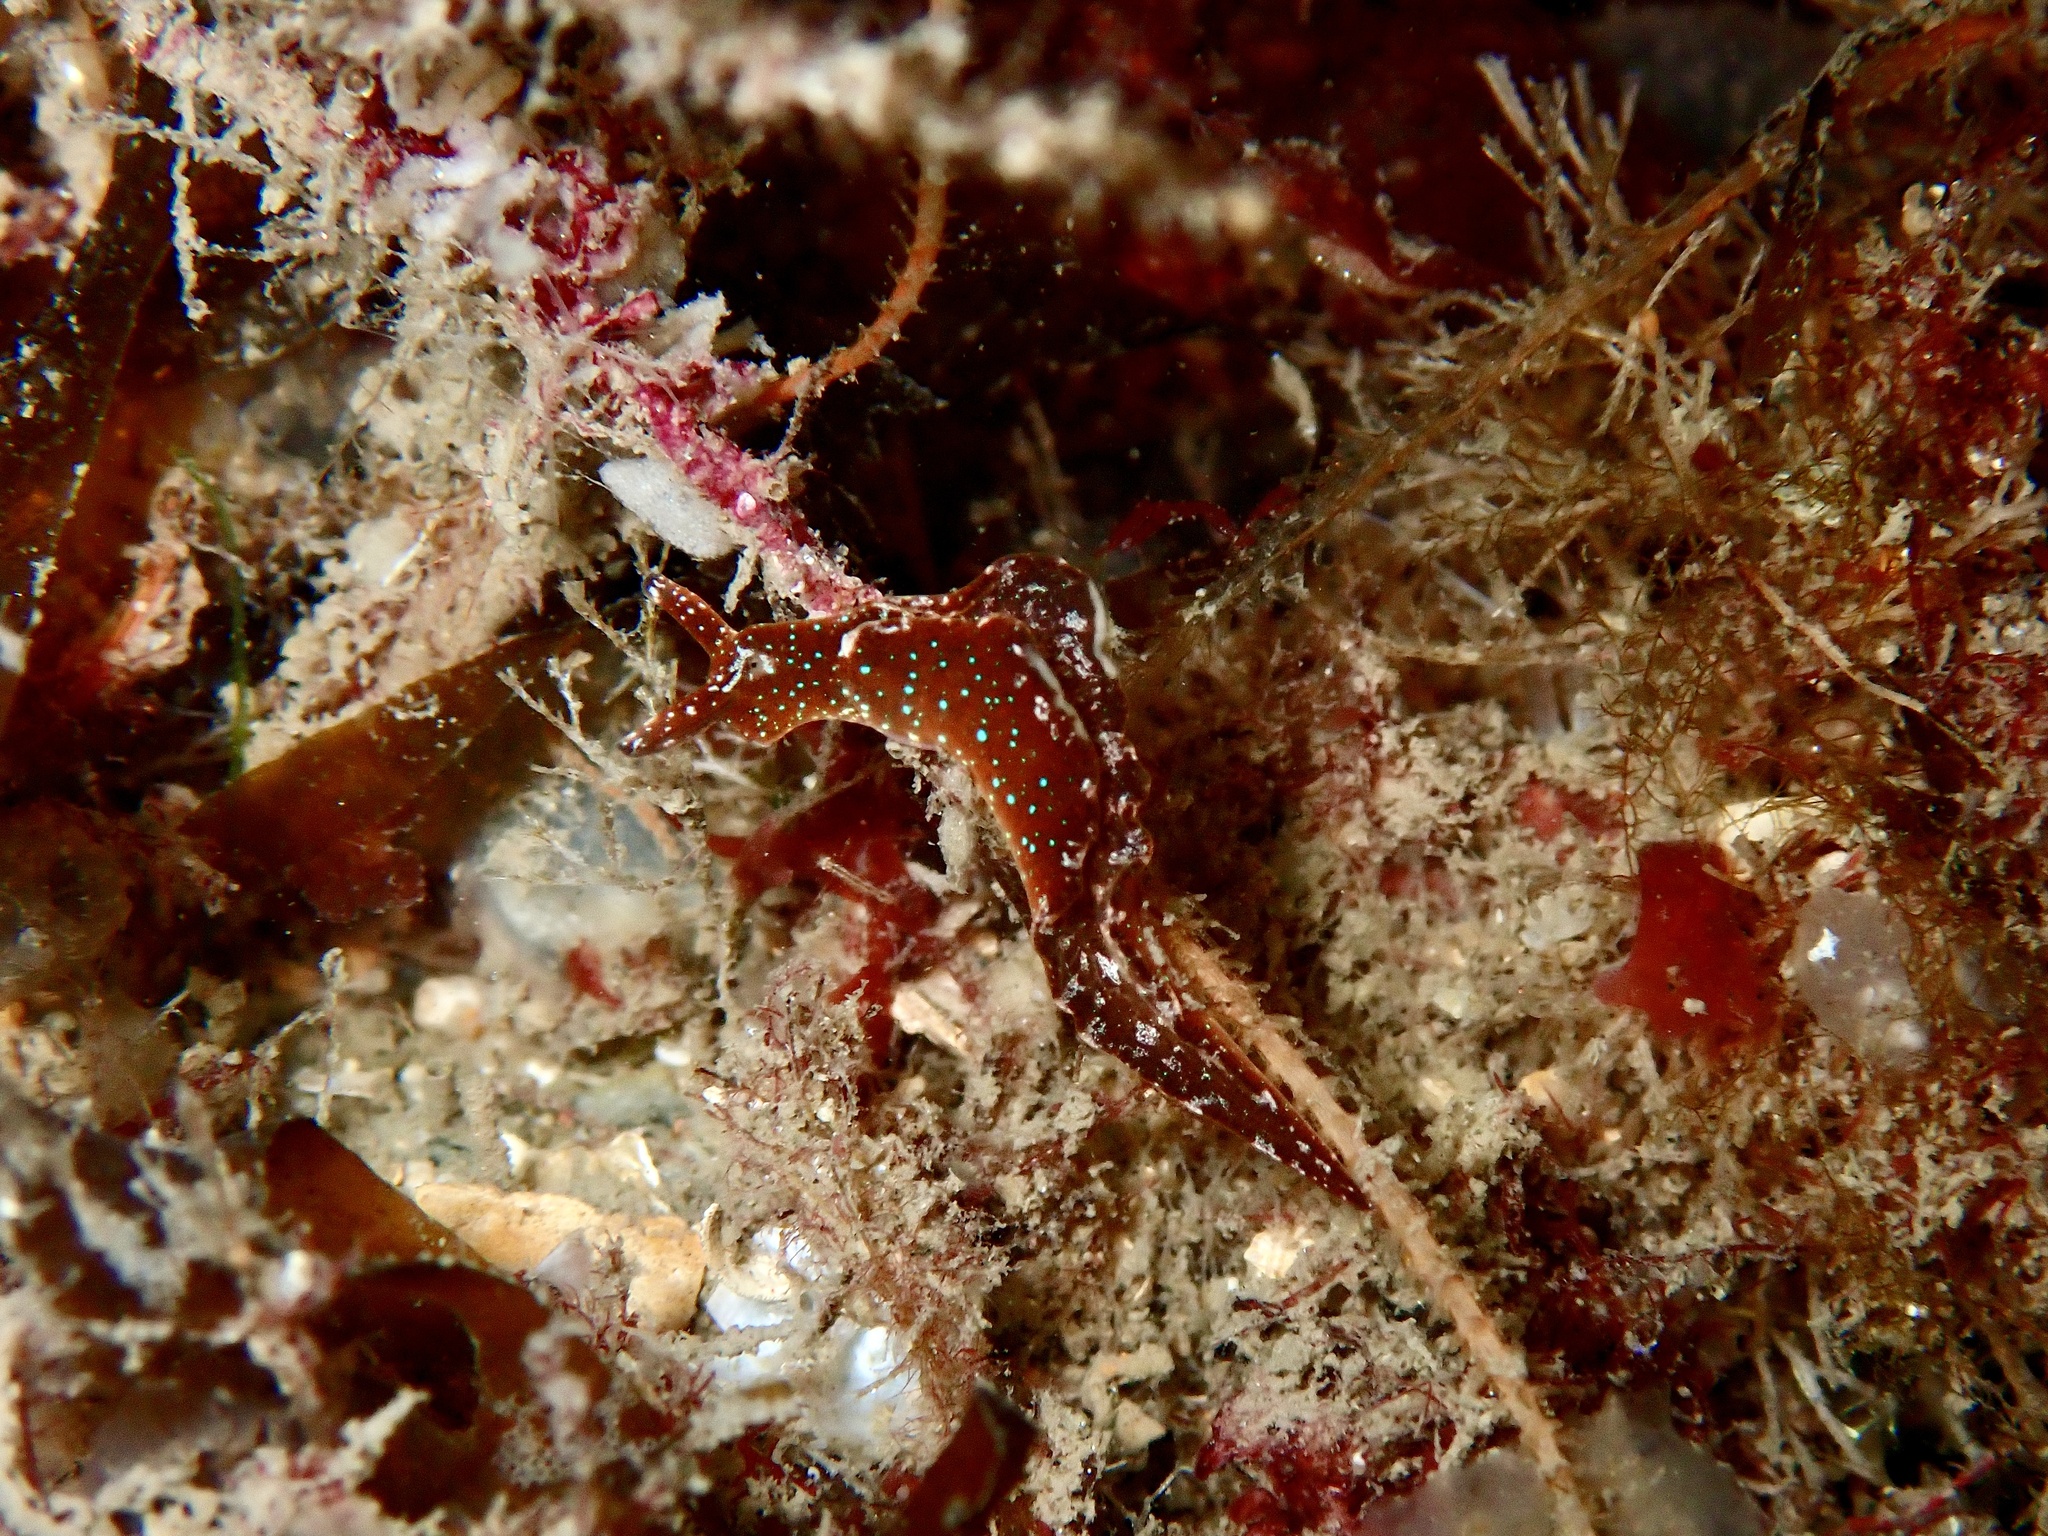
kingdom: Animalia
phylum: Mollusca
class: Gastropoda
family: Plakobranchidae
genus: Elysia
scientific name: Elysia viridis
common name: Green elysia
